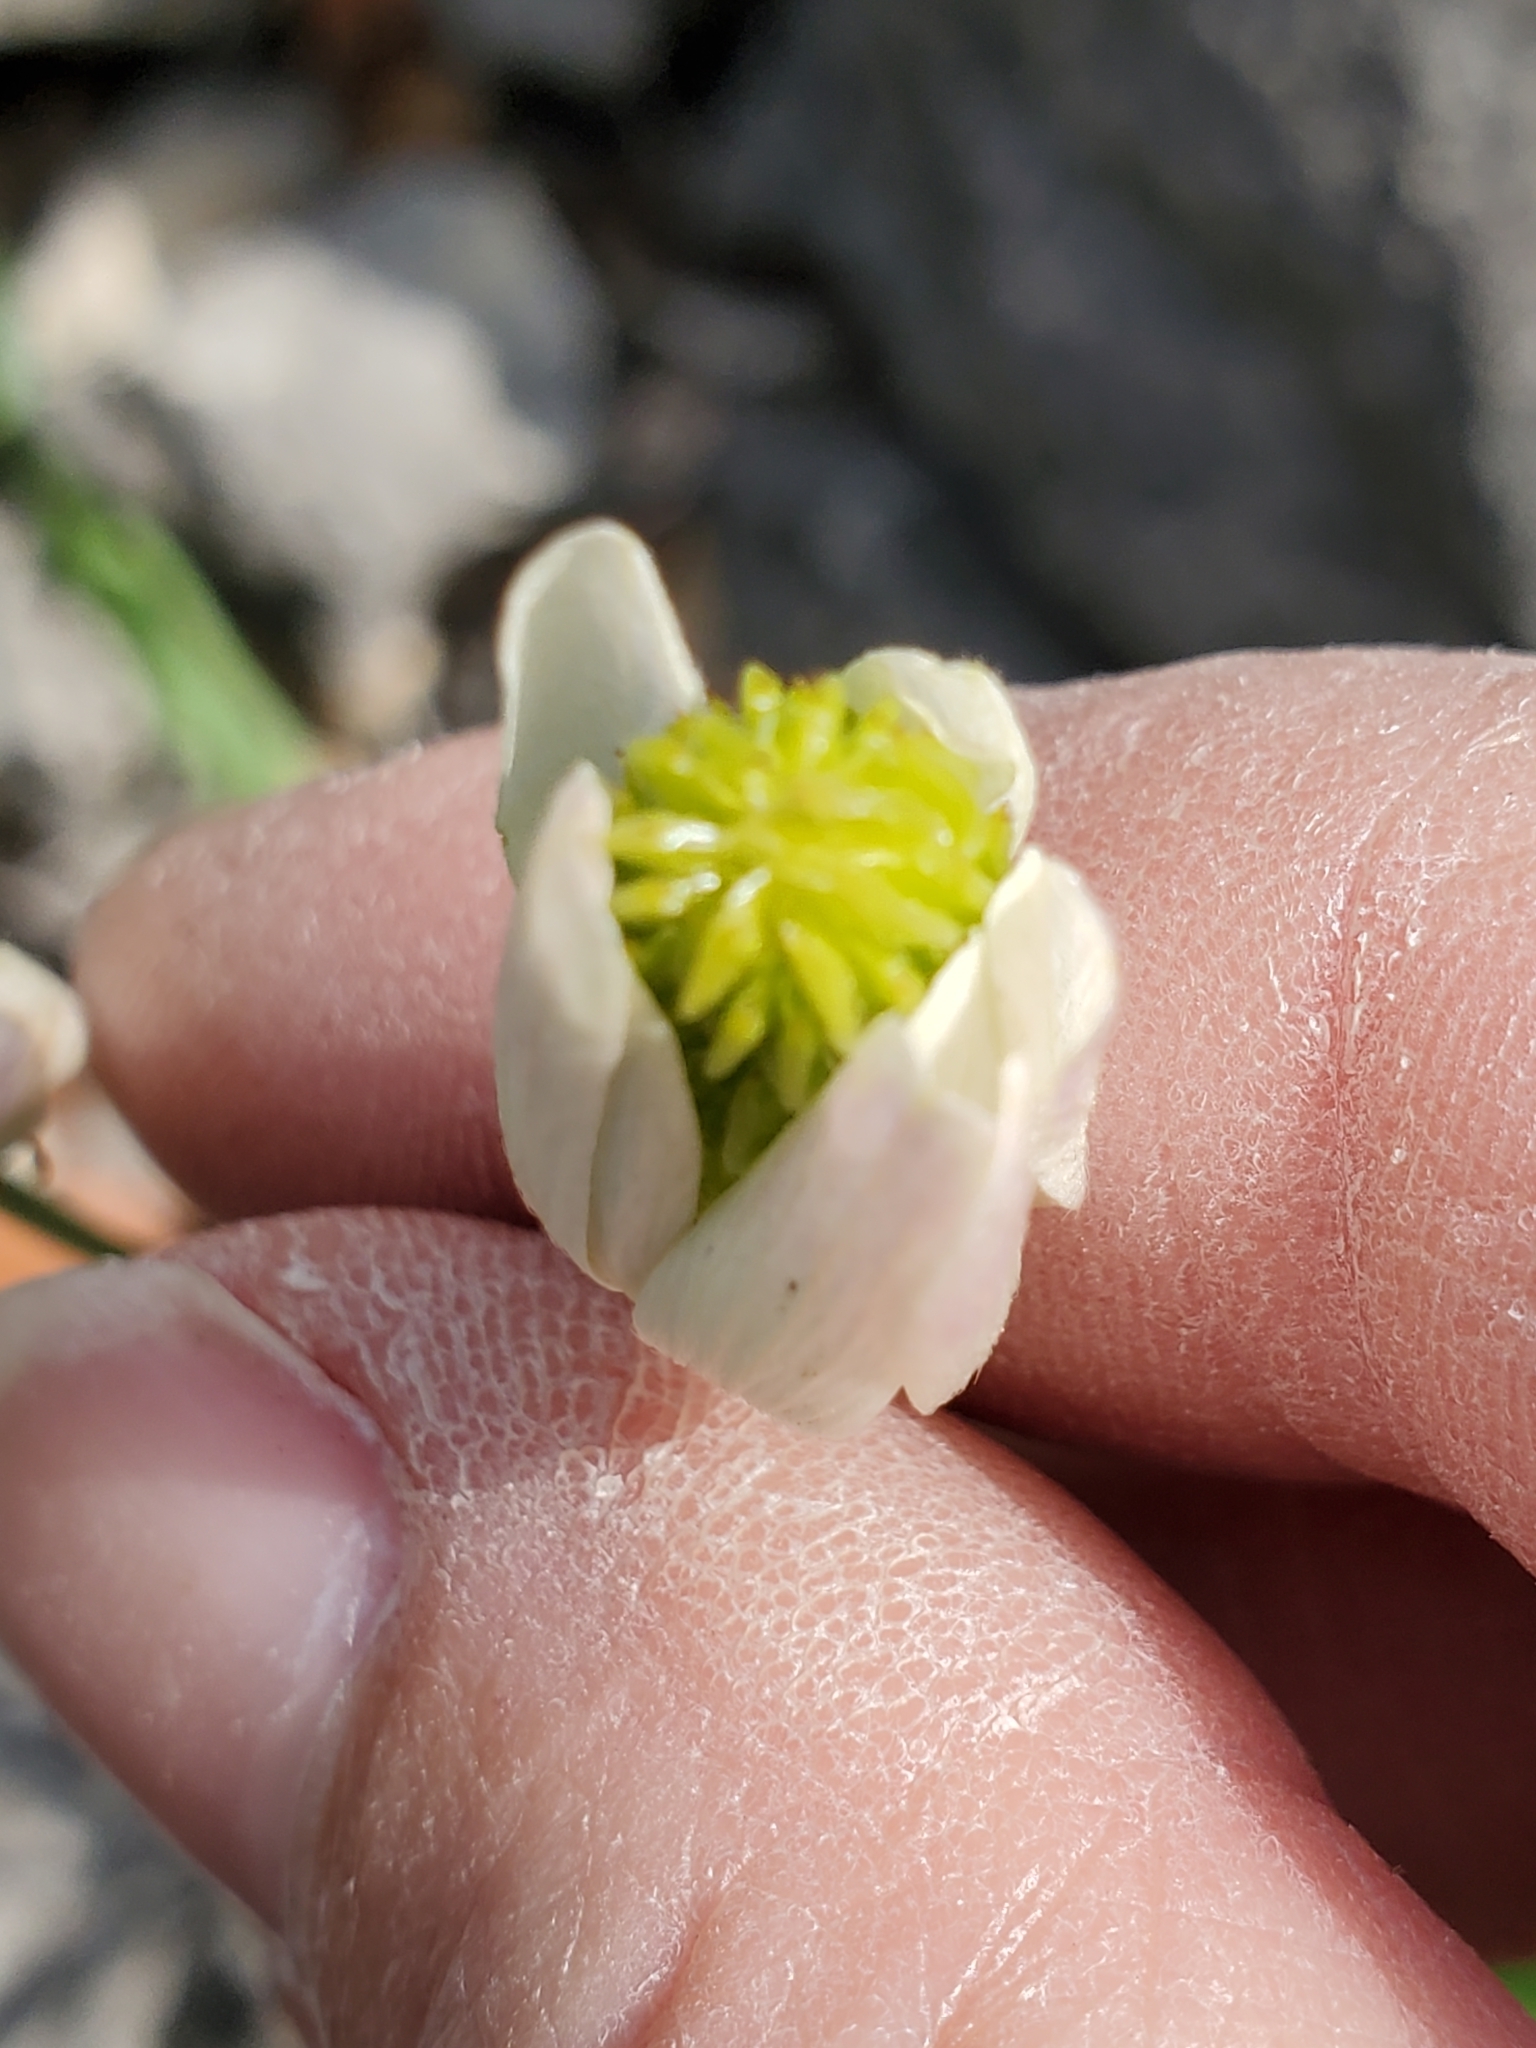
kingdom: Plantae
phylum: Tracheophyta
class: Magnoliopsida
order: Ranunculales
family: Ranunculaceae
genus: Anemone
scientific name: Anemone edwardsiana
